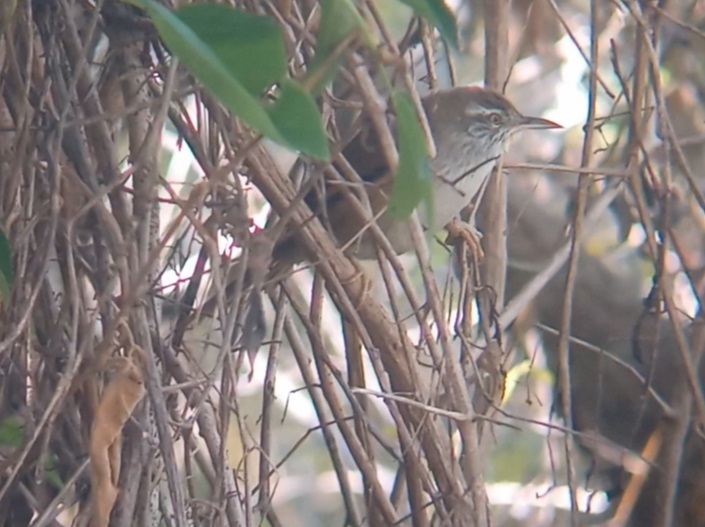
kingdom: Animalia
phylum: Chordata
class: Aves
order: Passeriformes
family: Furnariidae
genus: Cranioleuca
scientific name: Cranioleuca sulphurifera
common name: Sulphur-bearded spinetail
